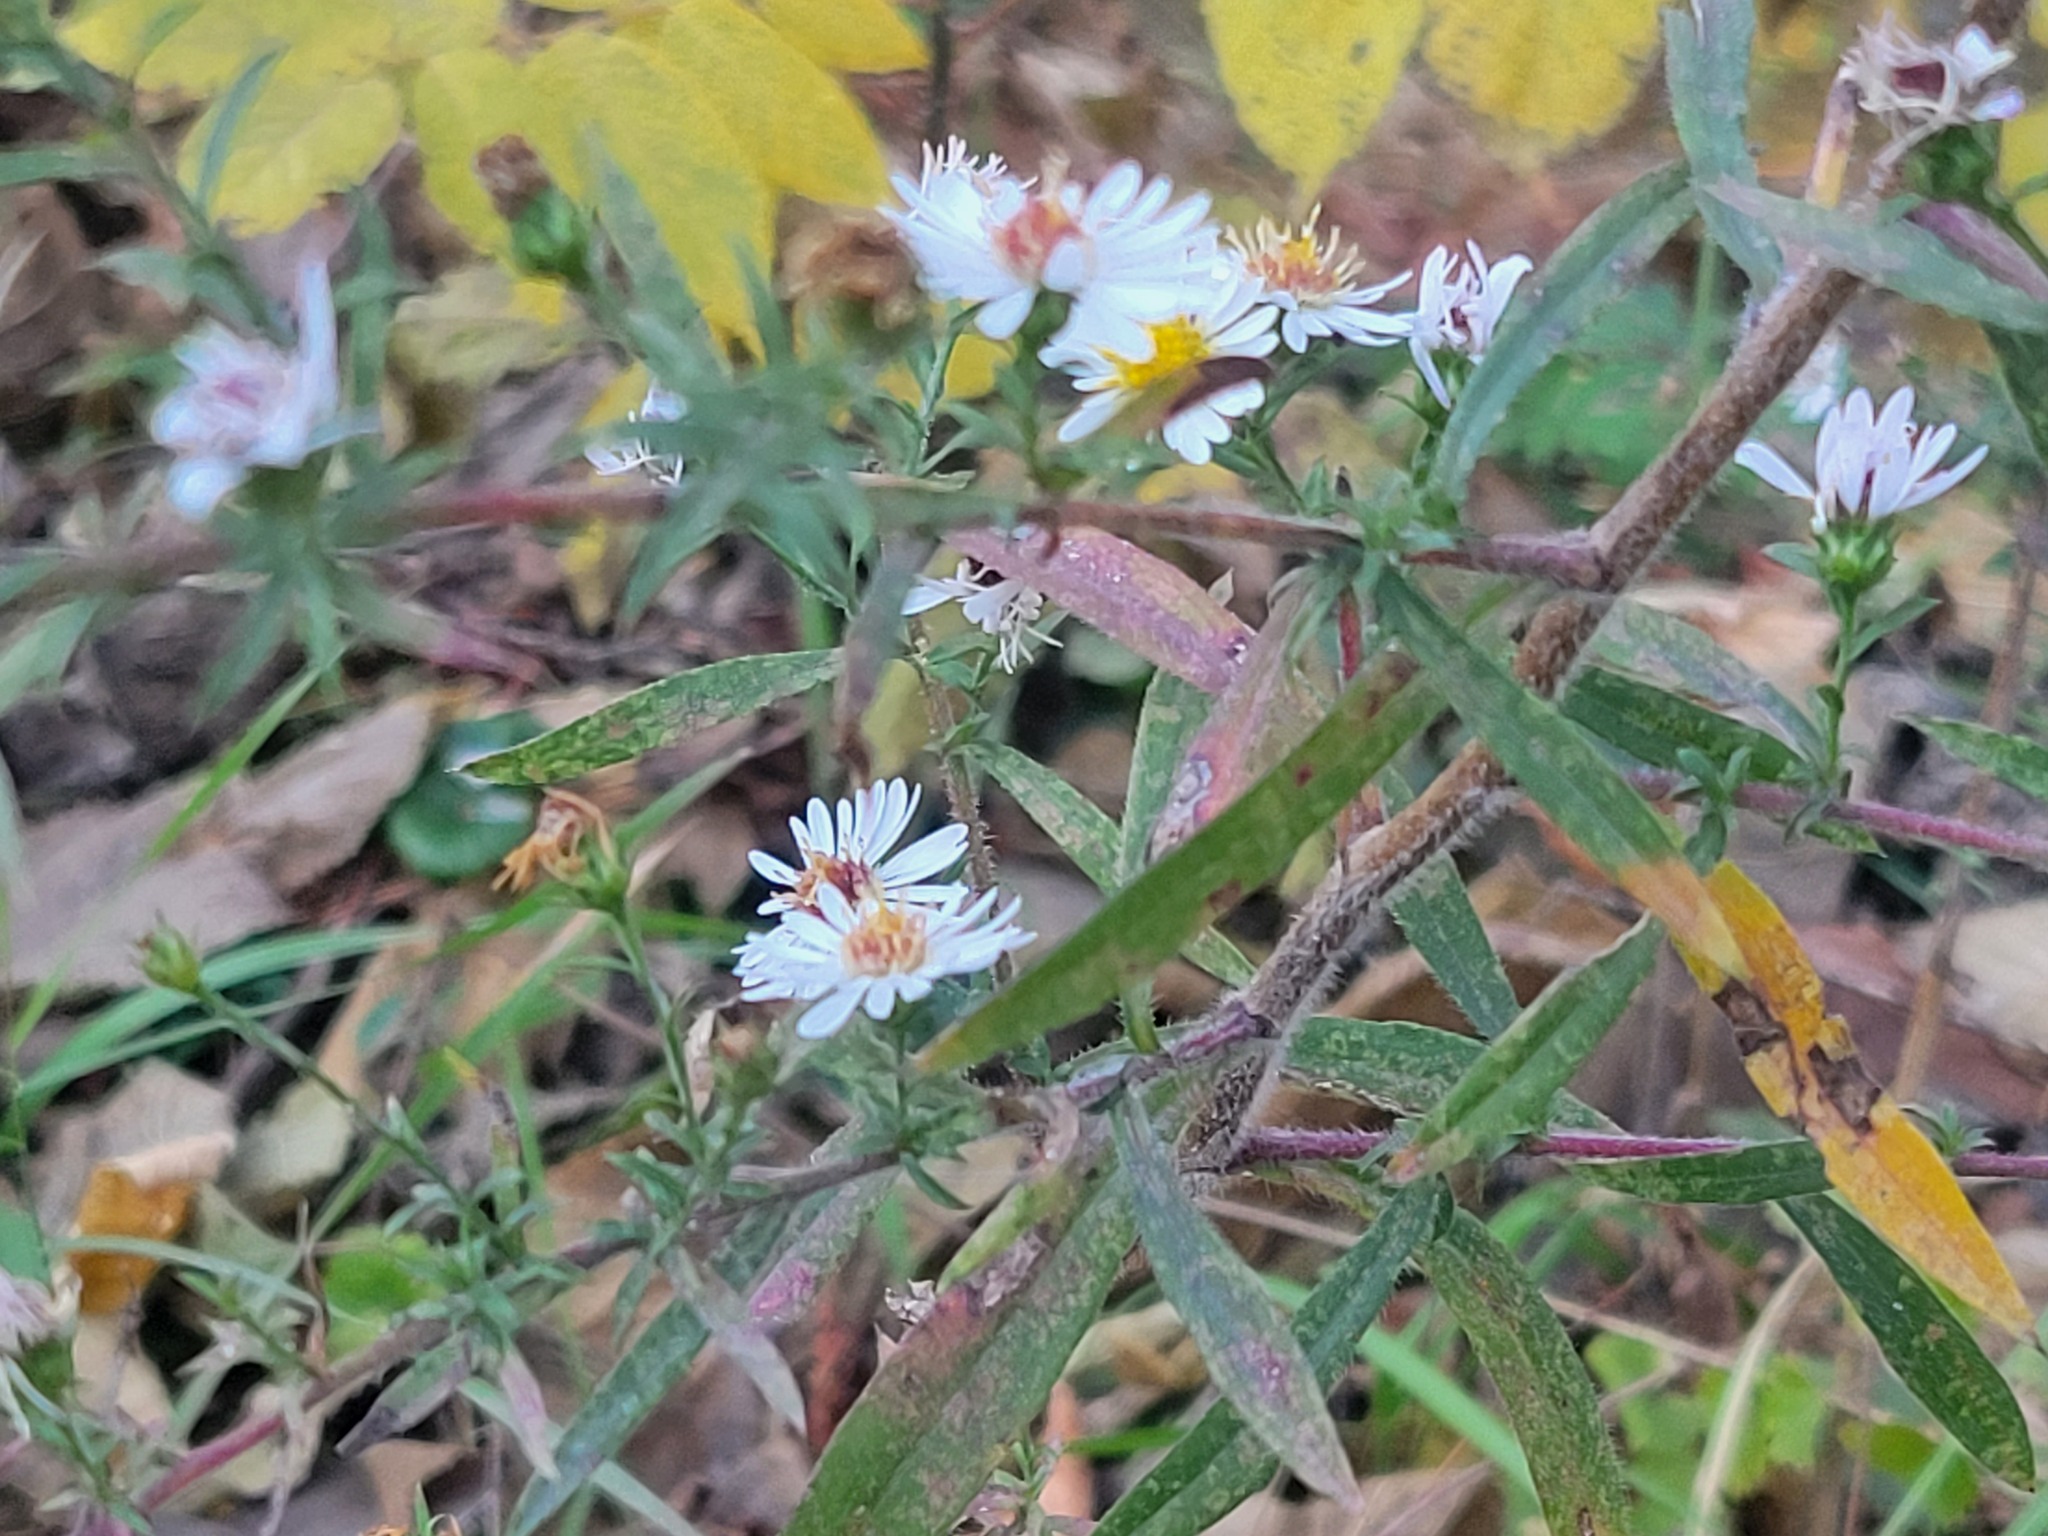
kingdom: Plantae
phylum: Tracheophyta
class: Magnoliopsida
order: Asterales
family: Asteraceae
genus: Symphyotrichum
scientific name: Symphyotrichum pilosum
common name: Awl aster
